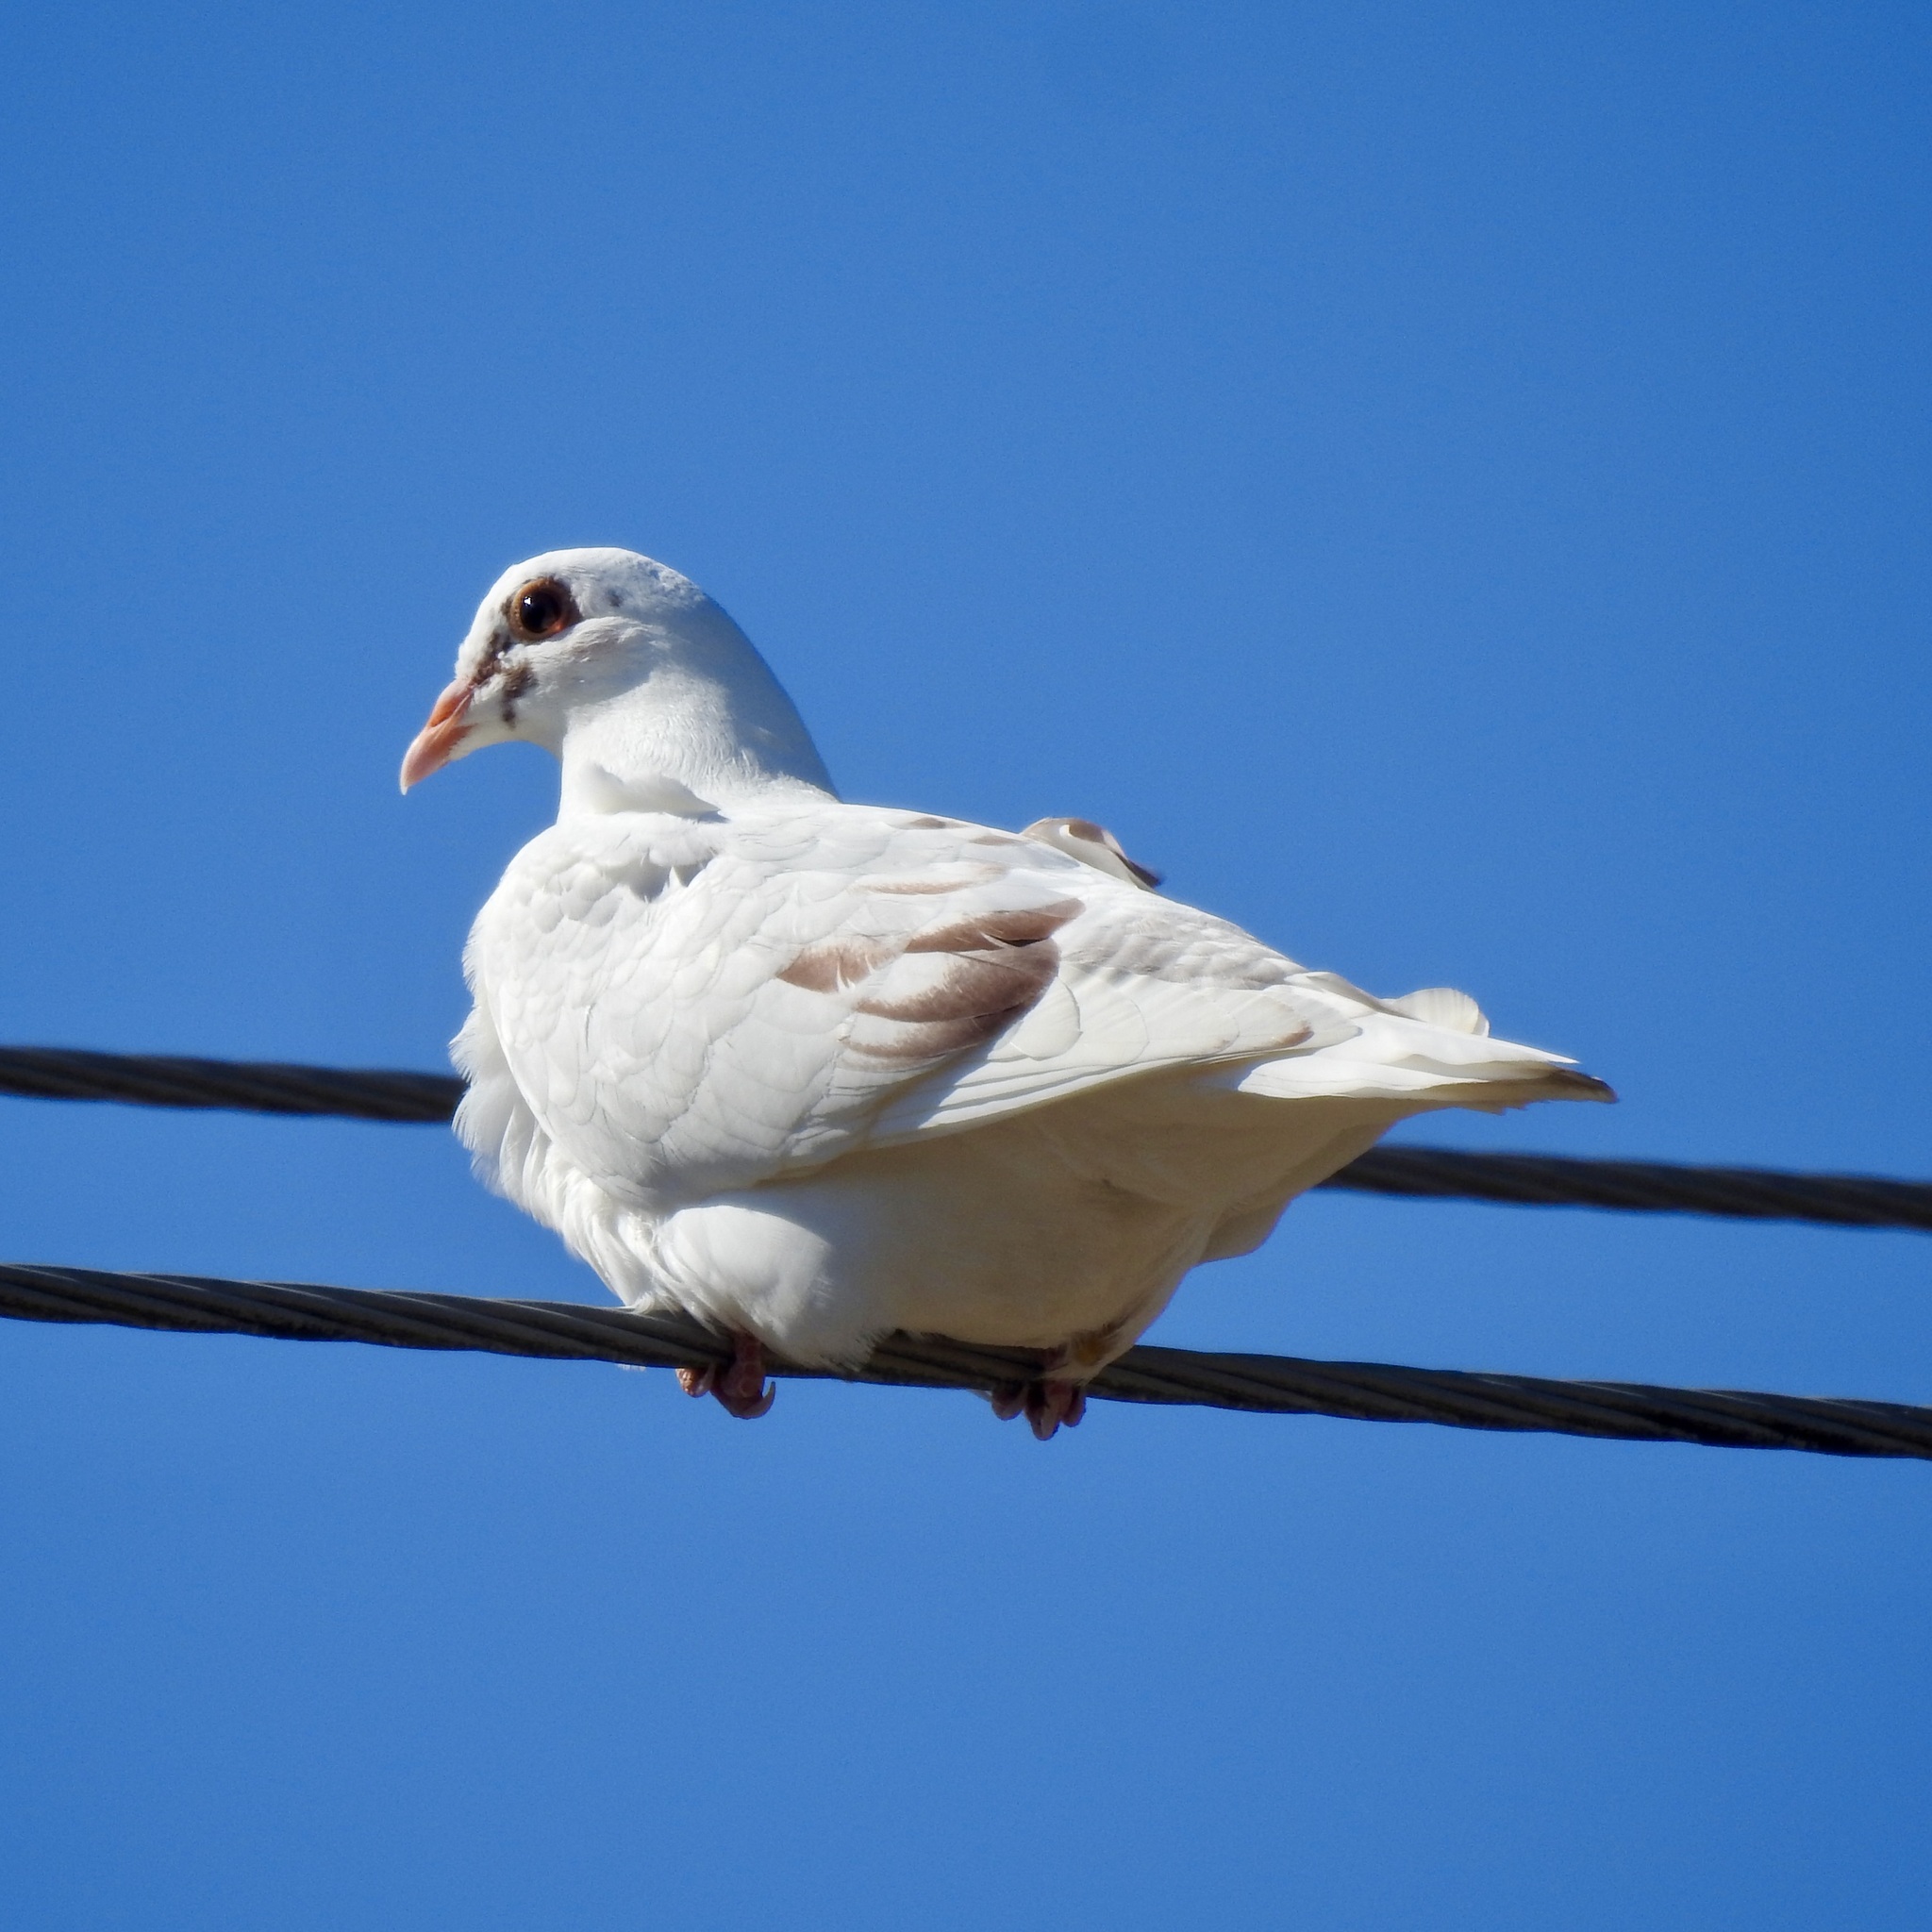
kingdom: Animalia
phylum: Chordata
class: Aves
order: Columbiformes
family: Columbidae
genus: Columba
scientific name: Columba livia
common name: Rock pigeon
